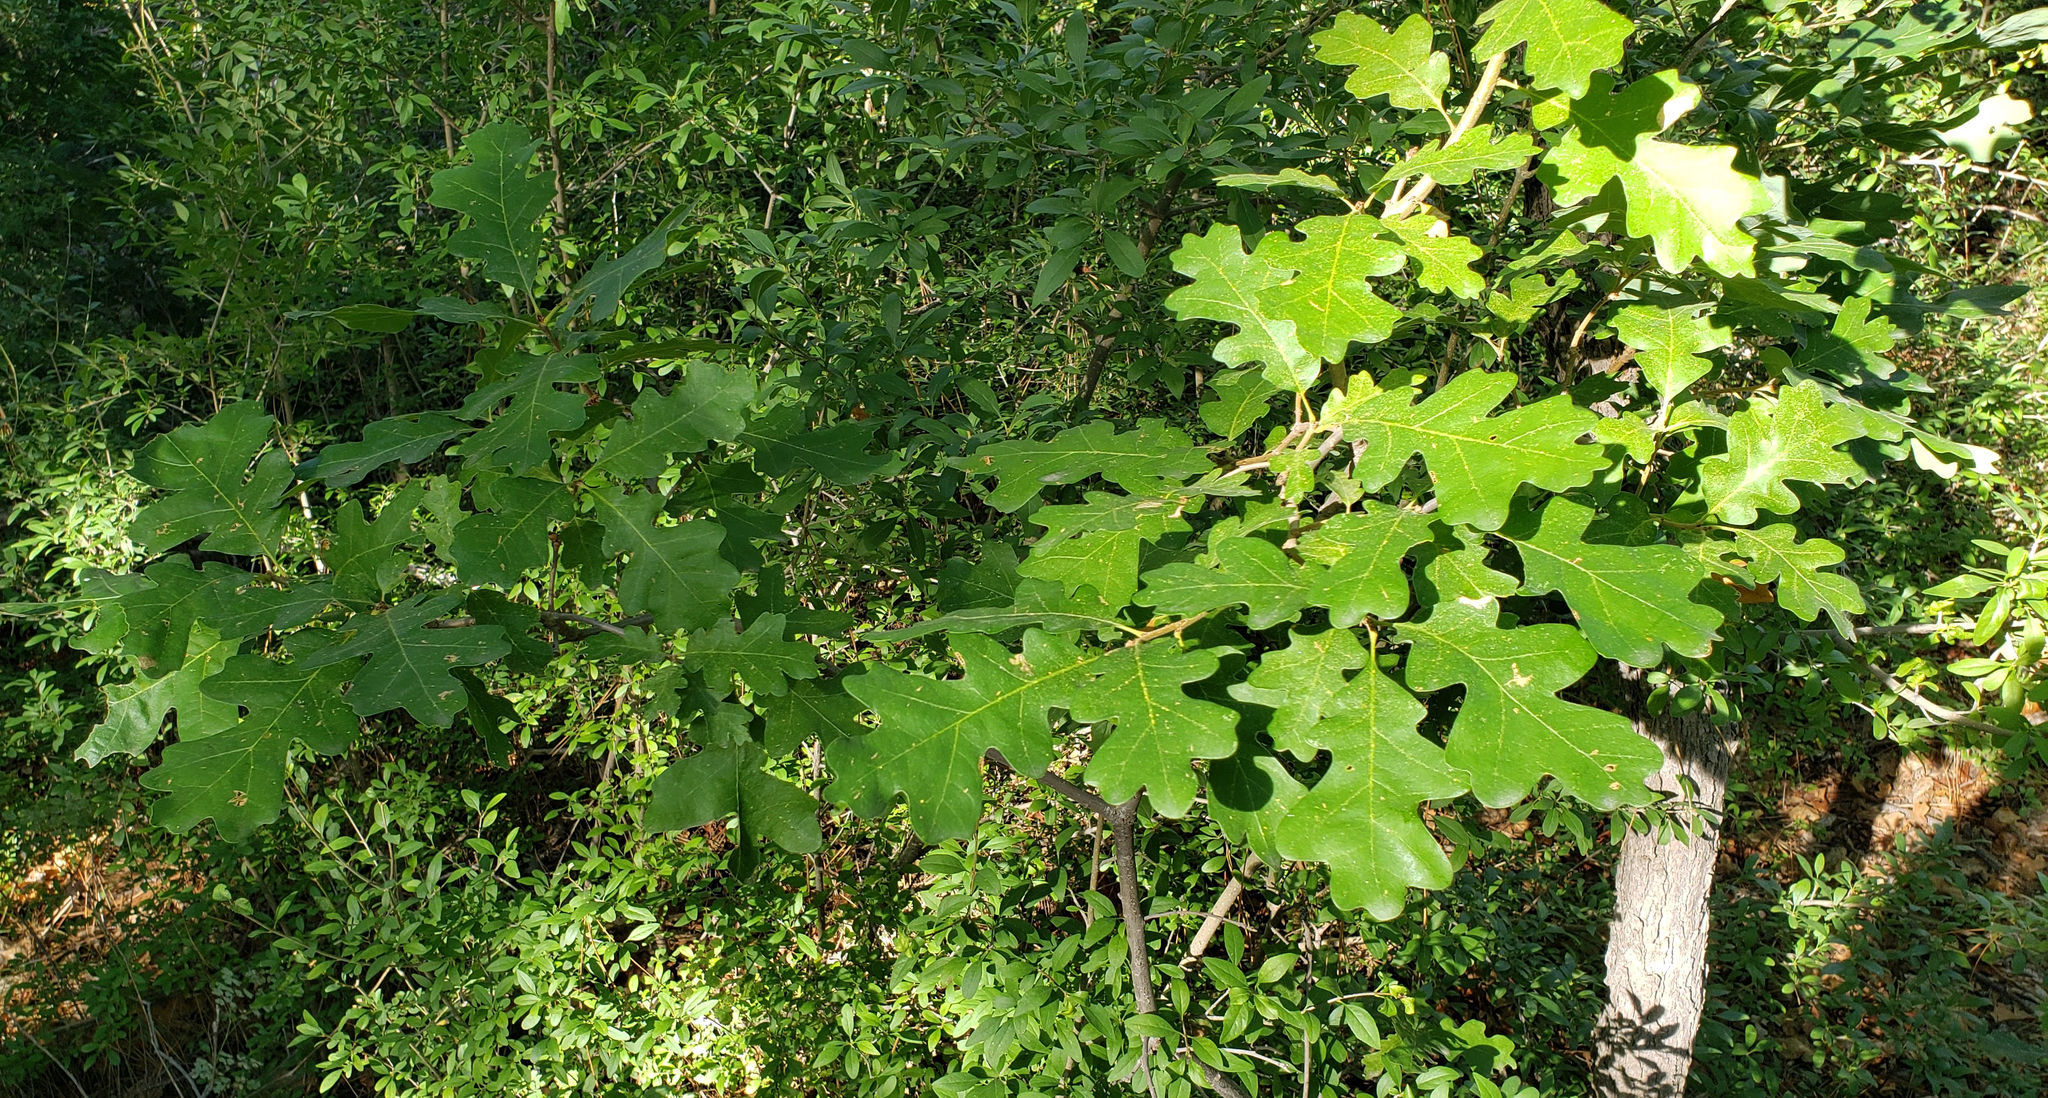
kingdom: Plantae
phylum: Tracheophyta
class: Magnoliopsida
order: Fagales
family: Fagaceae
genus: Quercus
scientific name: Quercus gambelii
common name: Gambel oak
